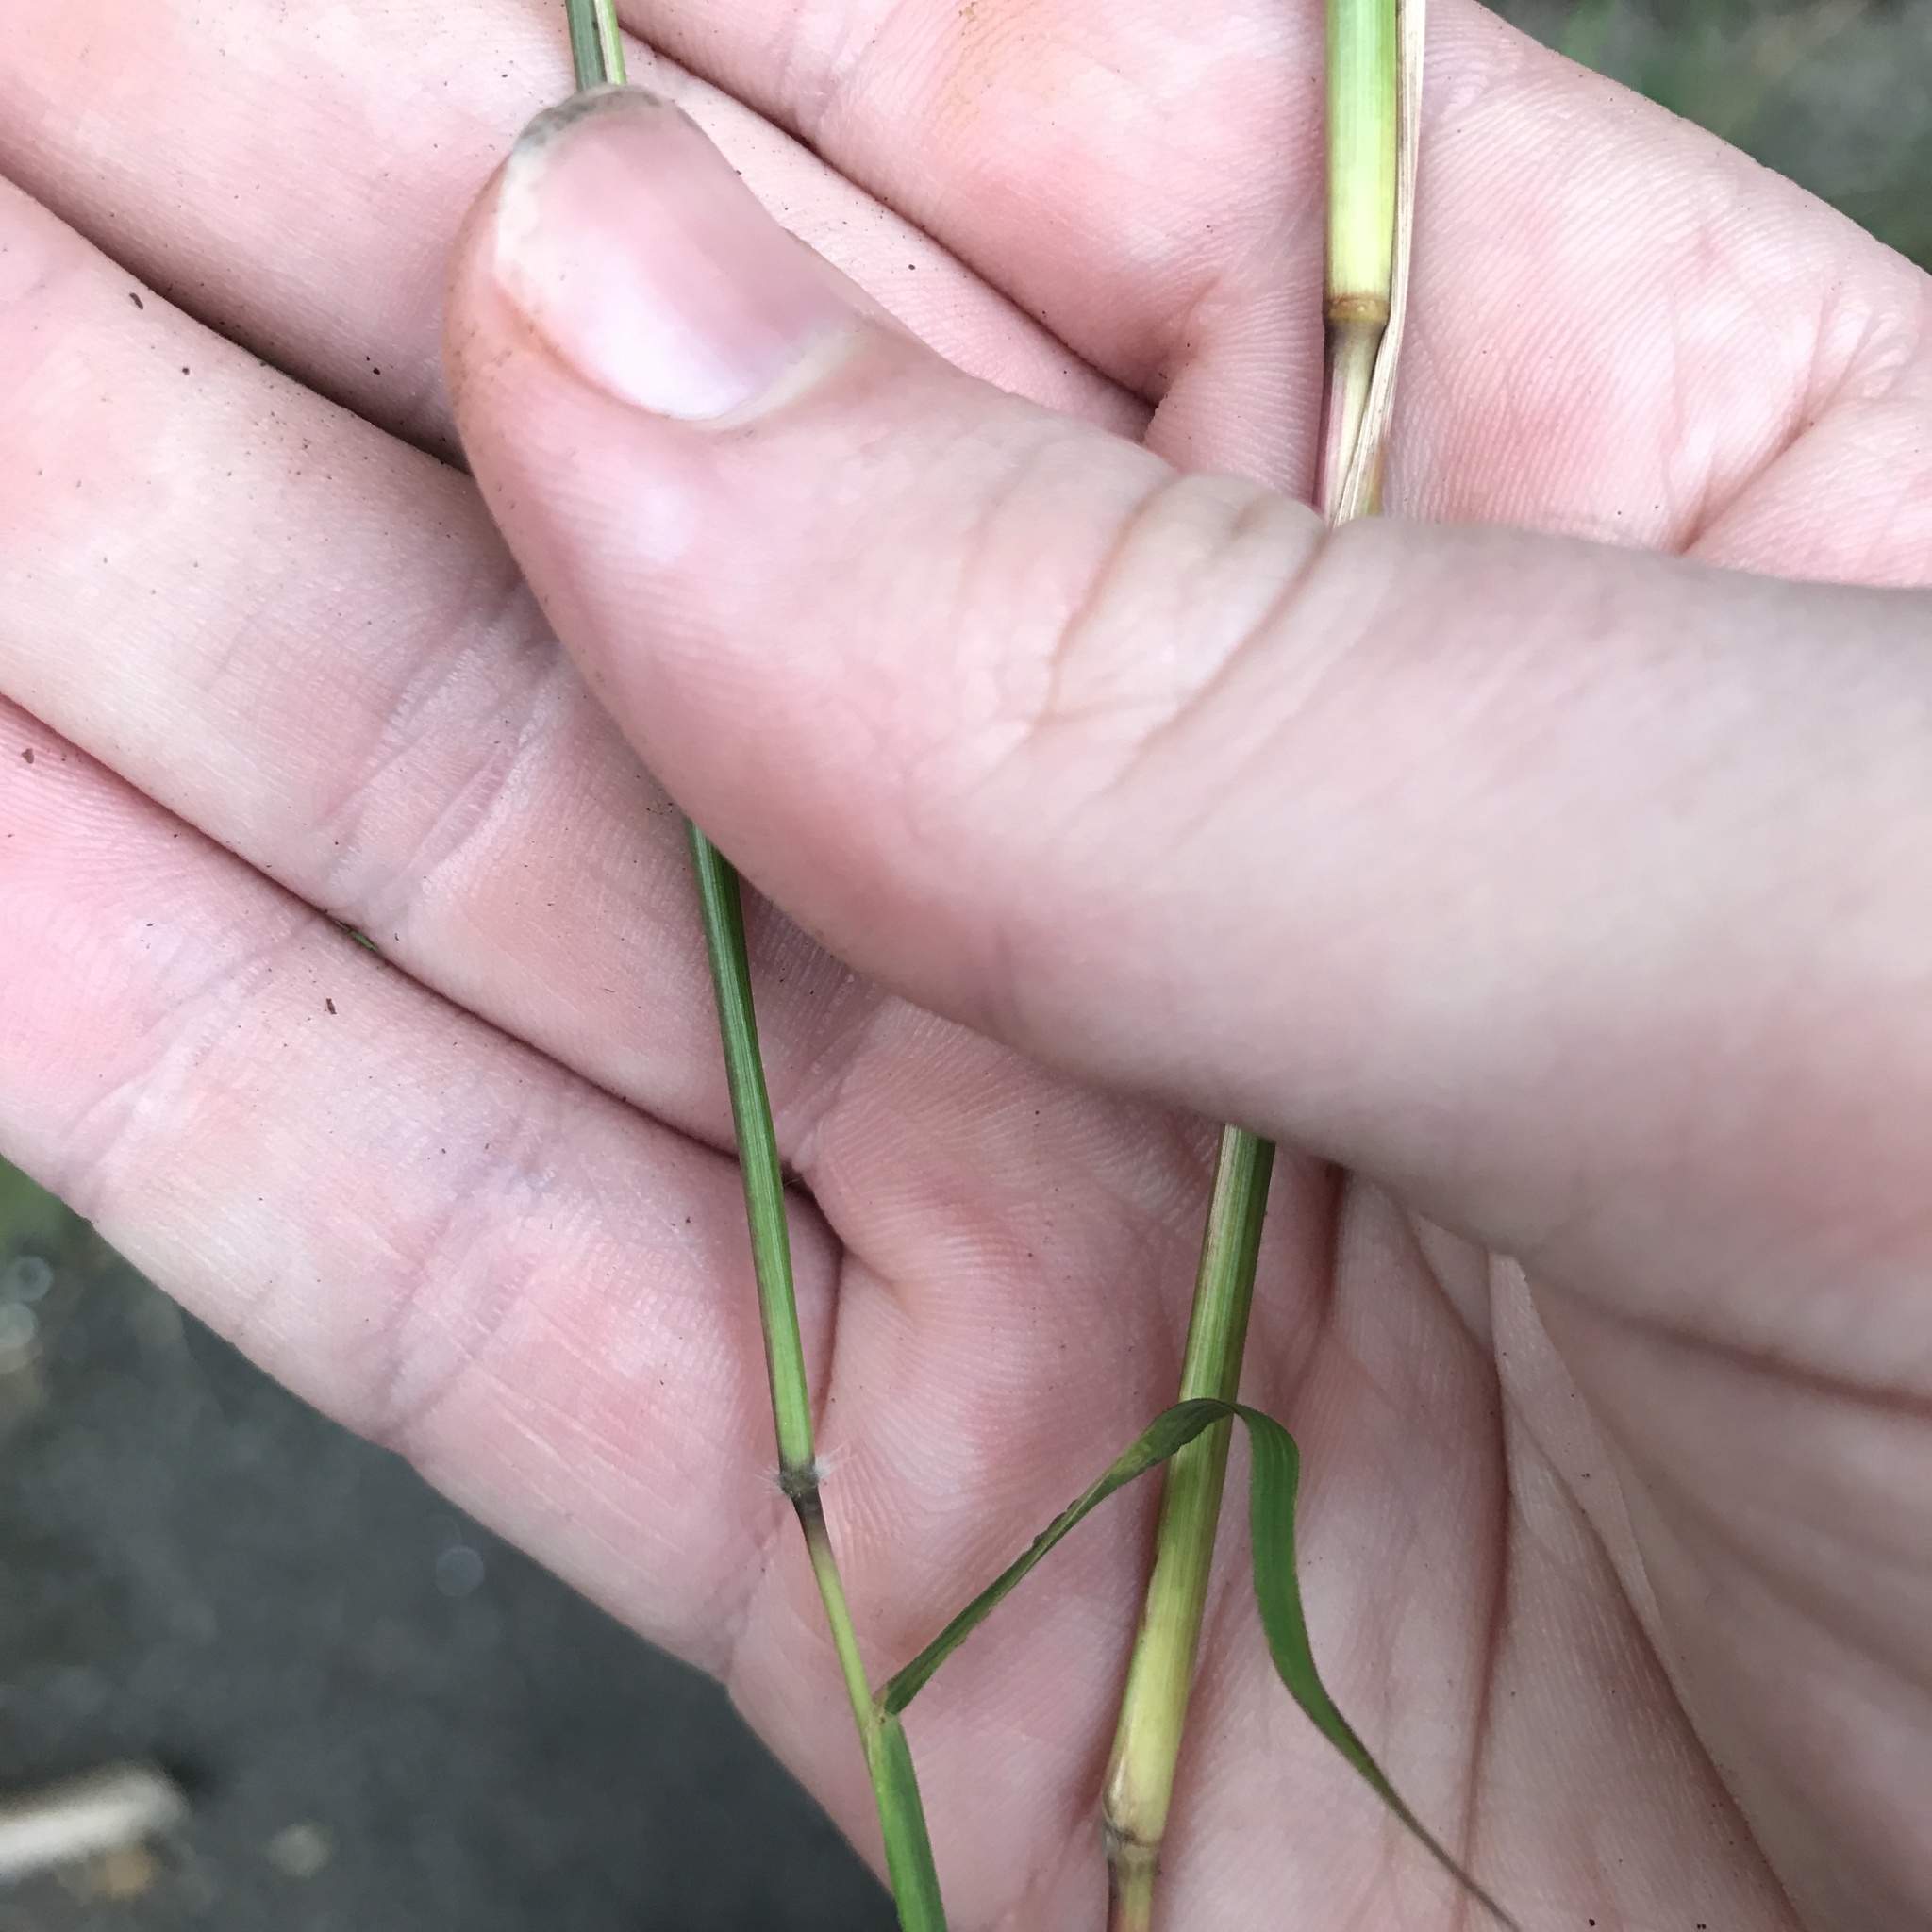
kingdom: Plantae
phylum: Tracheophyta
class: Liliopsida
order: Poales
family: Poaceae
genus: Capillipedium
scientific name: Capillipedium parviflorum
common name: Golden-beard
